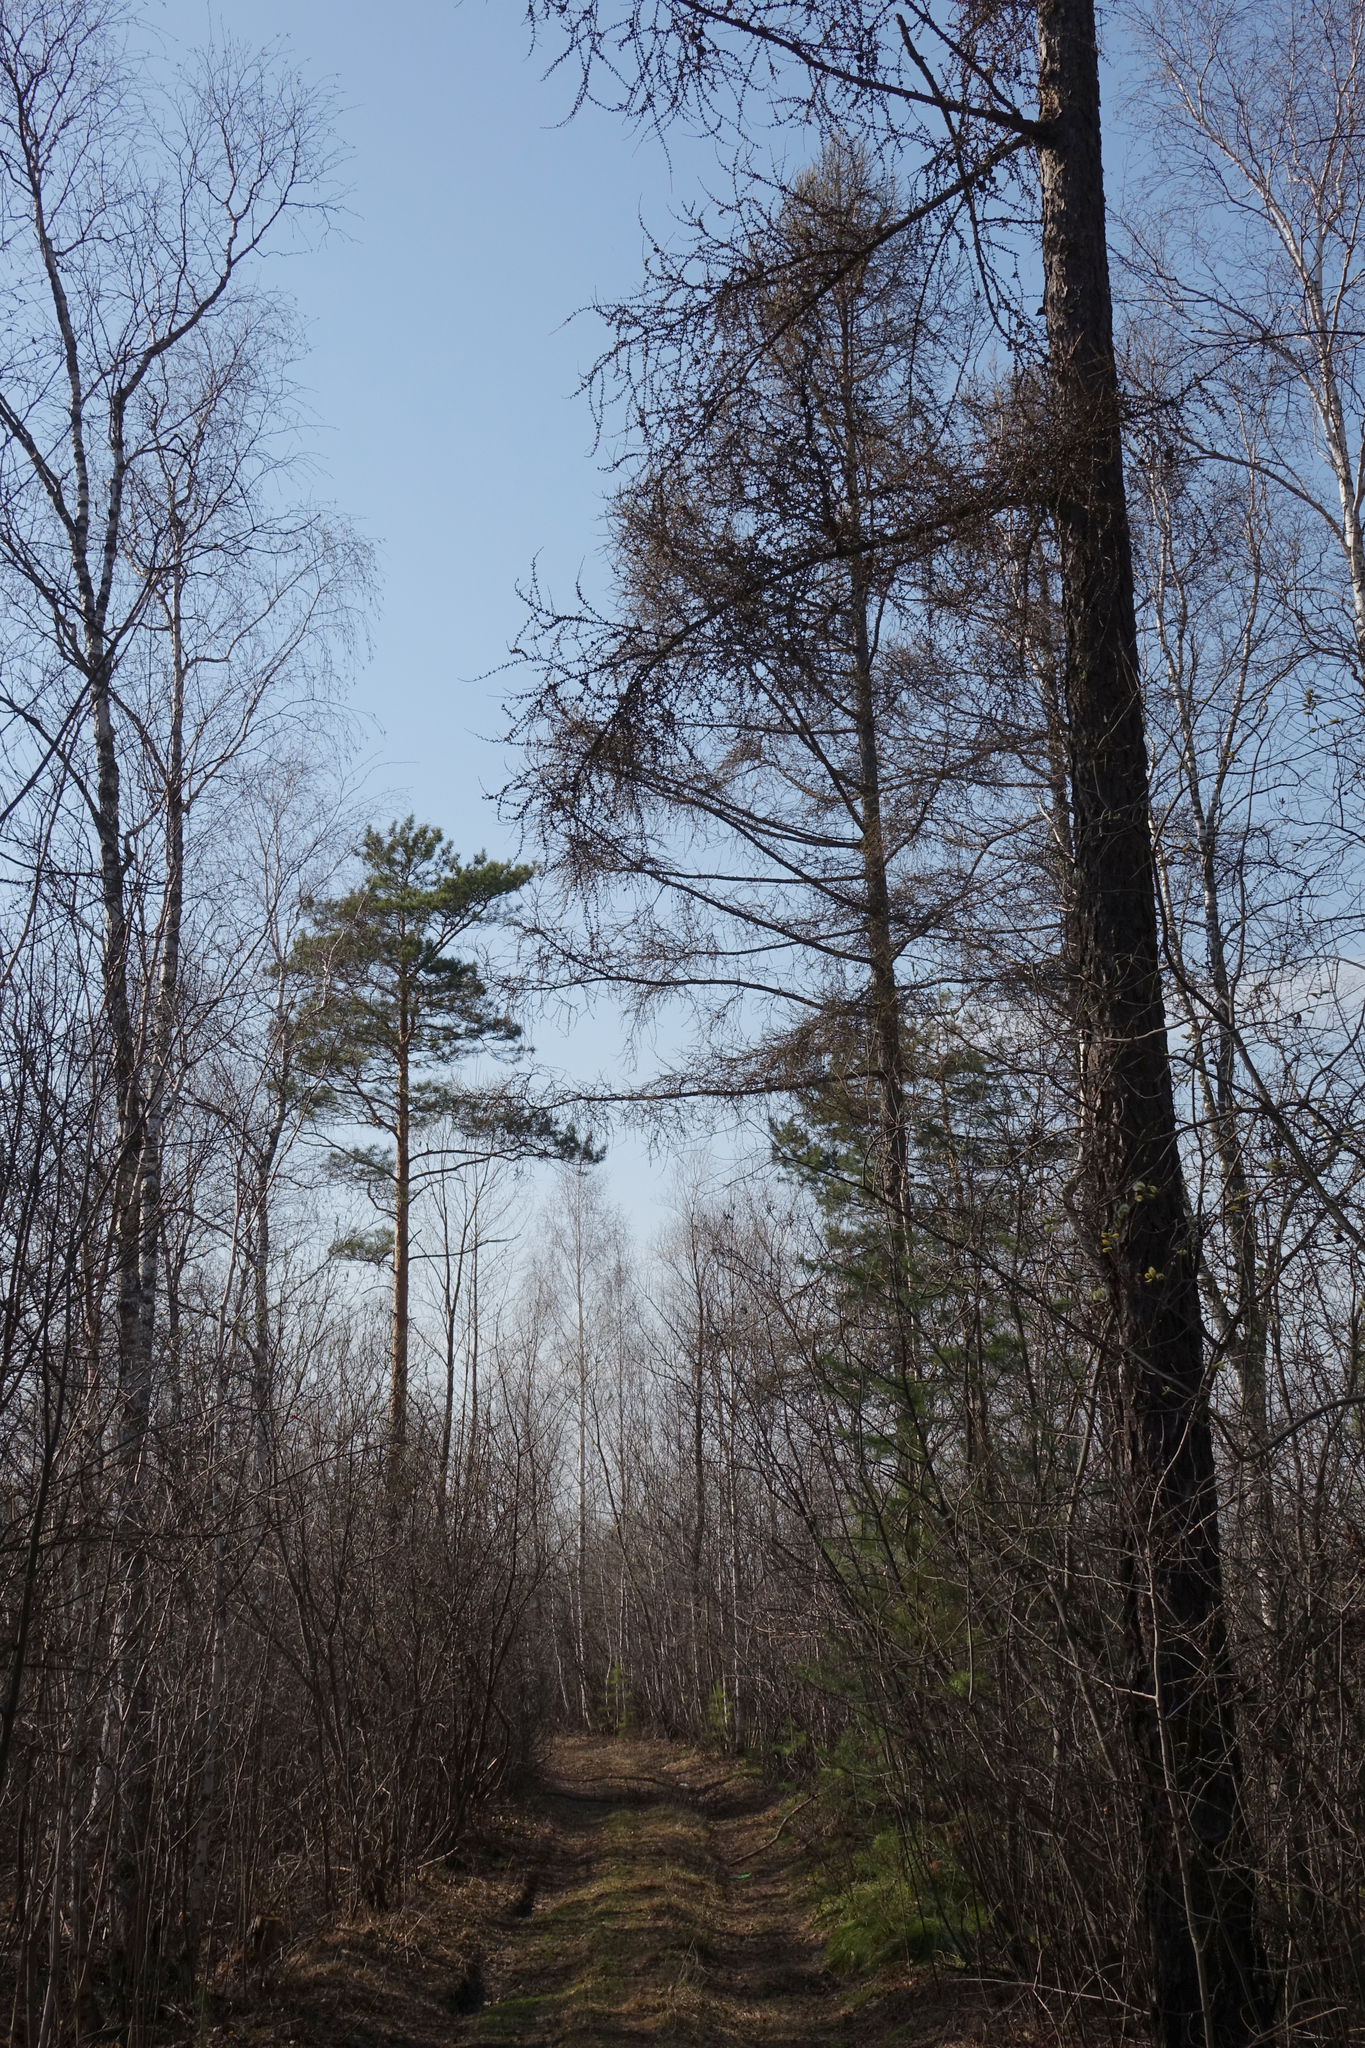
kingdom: Plantae
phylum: Tracheophyta
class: Pinopsida
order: Pinales
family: Pinaceae
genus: Larix
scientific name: Larix sibirica
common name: Siberian larch
